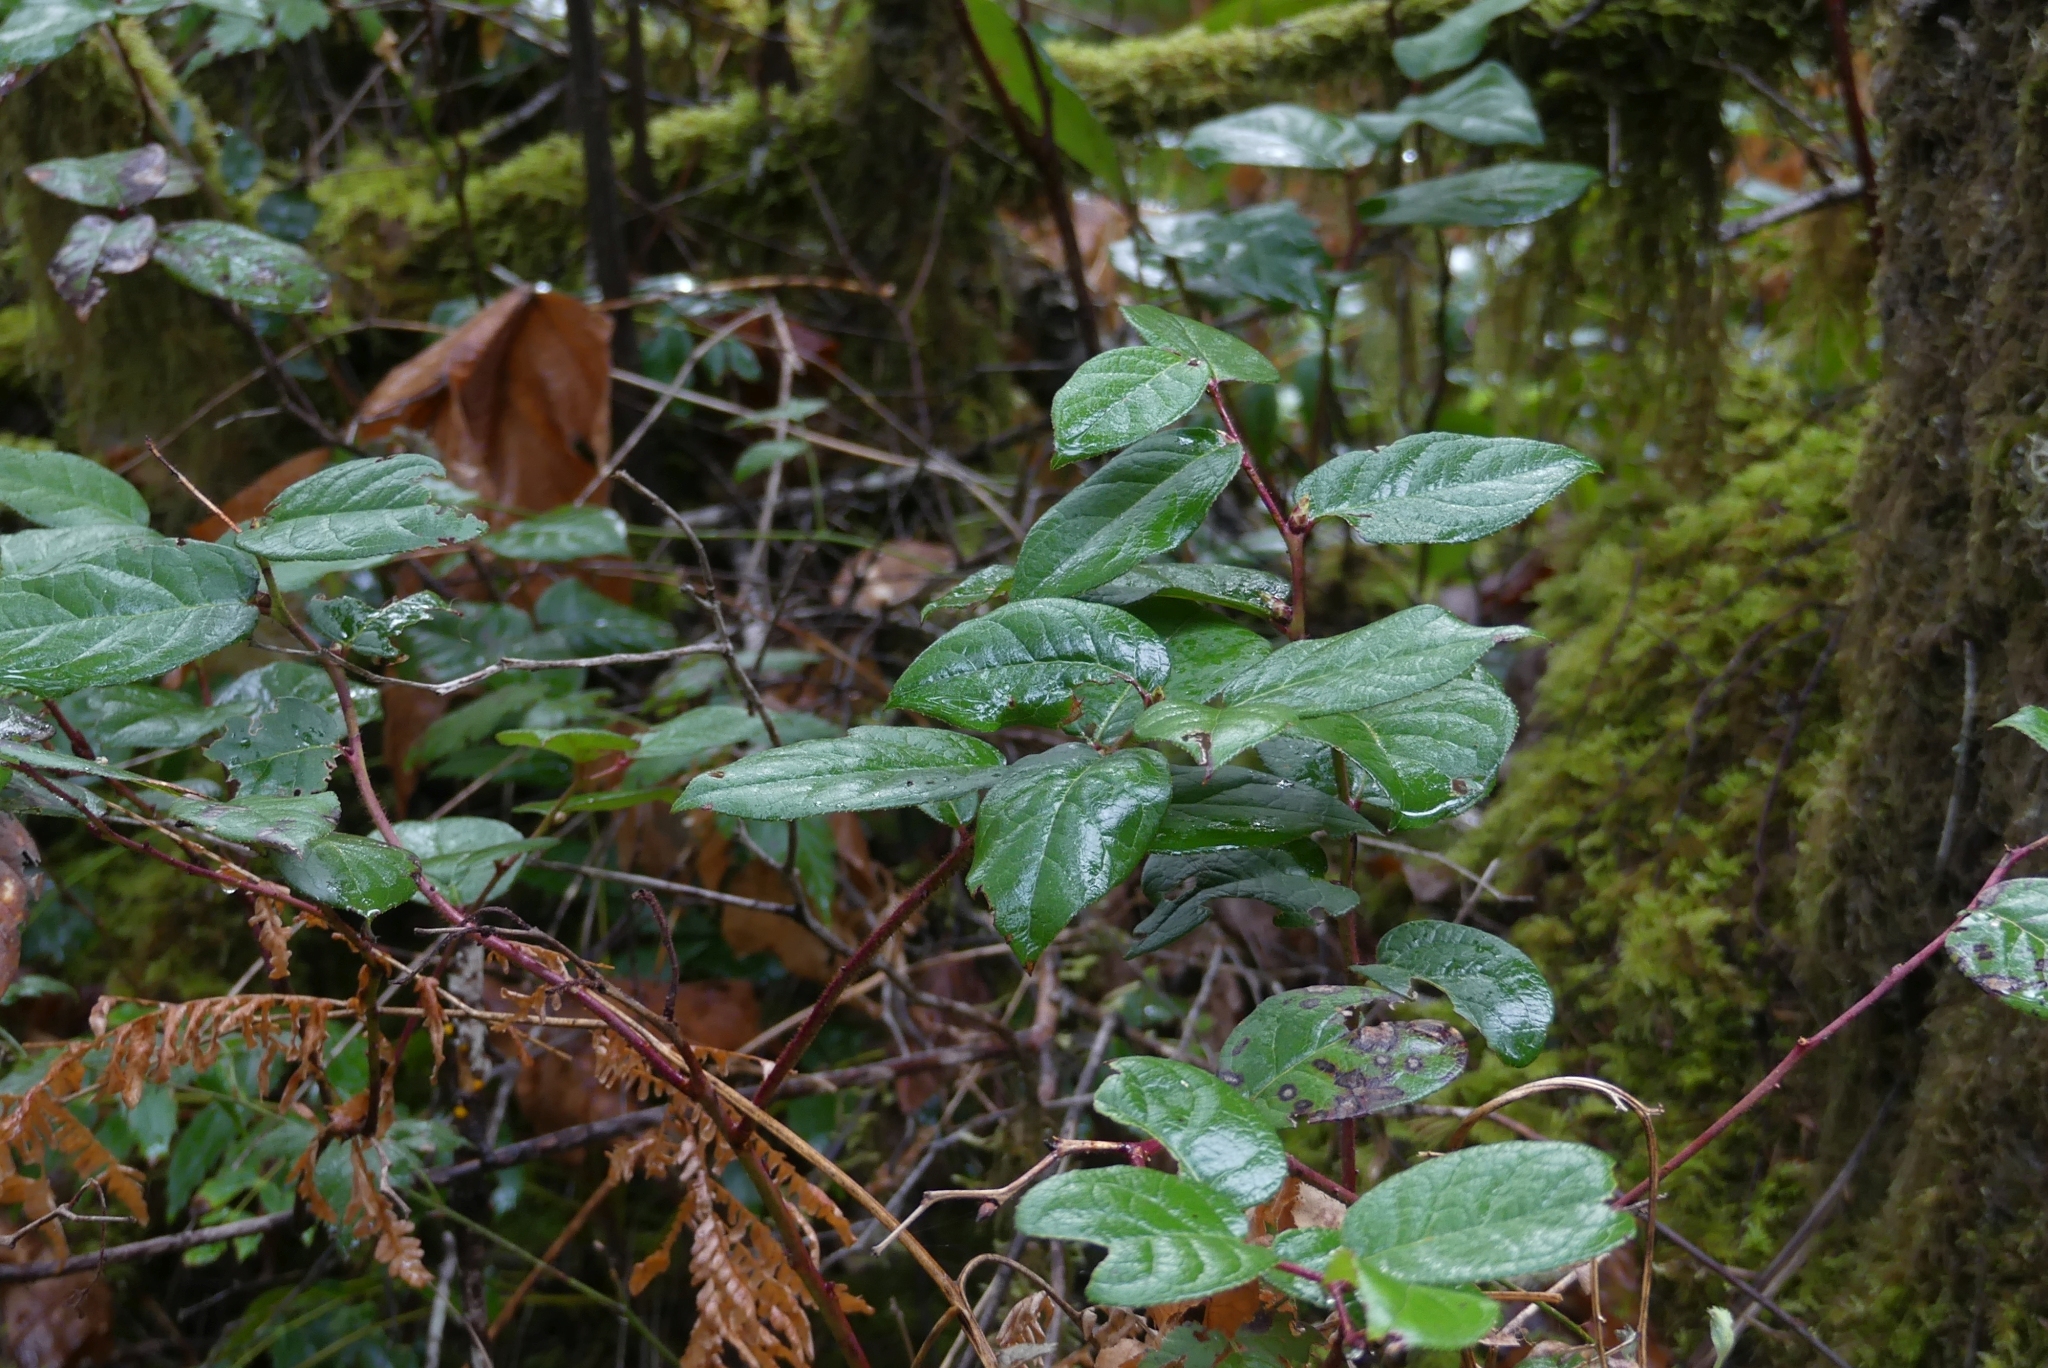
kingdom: Plantae
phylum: Tracheophyta
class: Magnoliopsida
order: Ericales
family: Ericaceae
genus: Gaultheria
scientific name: Gaultheria shallon
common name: Shallon
